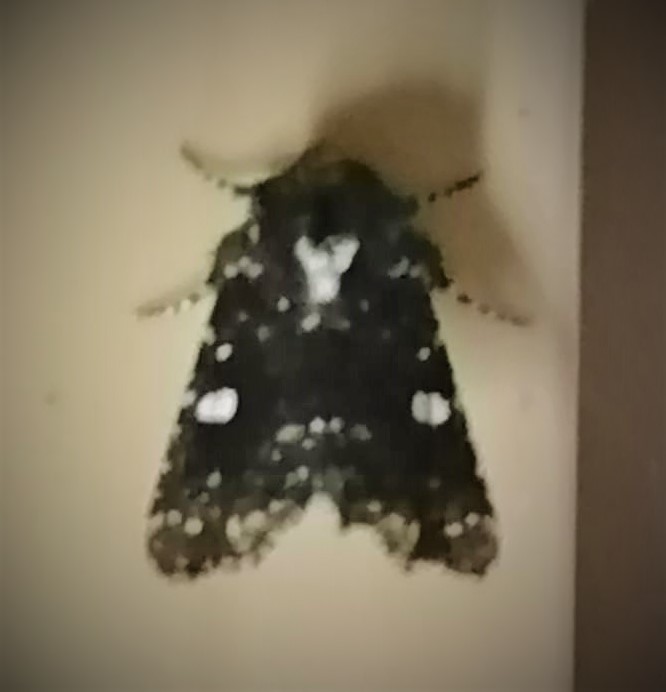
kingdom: Animalia
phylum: Arthropoda
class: Insecta
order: Lepidoptera
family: Noctuidae
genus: Chabuata
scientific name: Chabuata Pastona rudis
